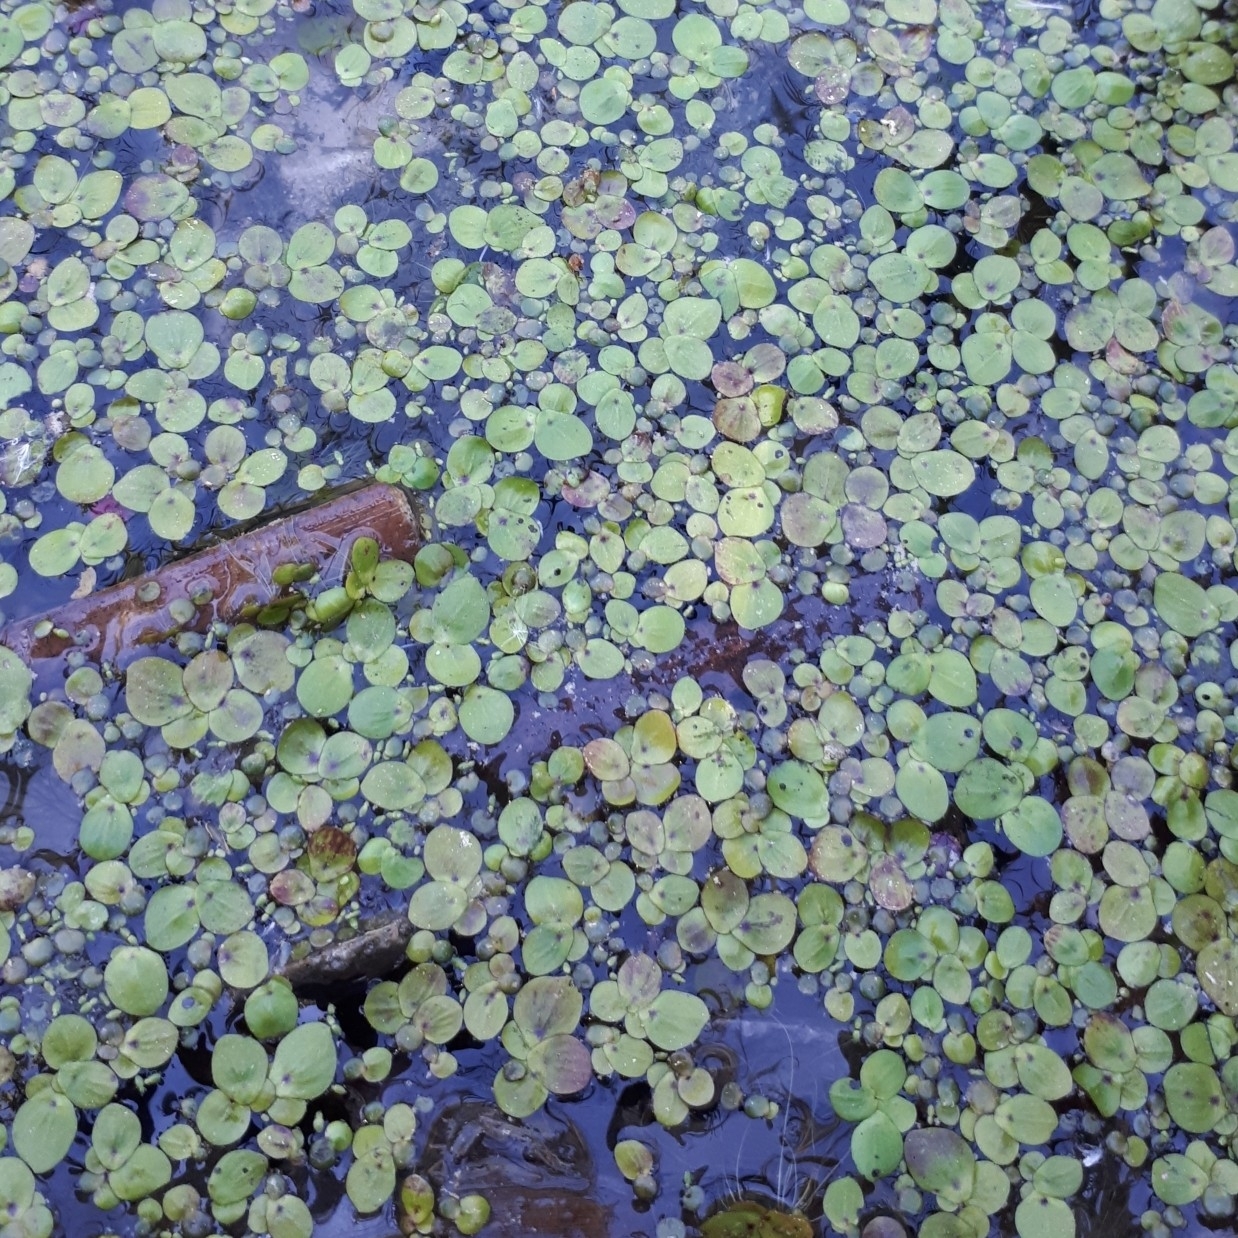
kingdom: Plantae
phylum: Tracheophyta
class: Liliopsida
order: Alismatales
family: Araceae
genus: Spirodela
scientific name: Spirodela polyrhiza
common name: Great duckweed
